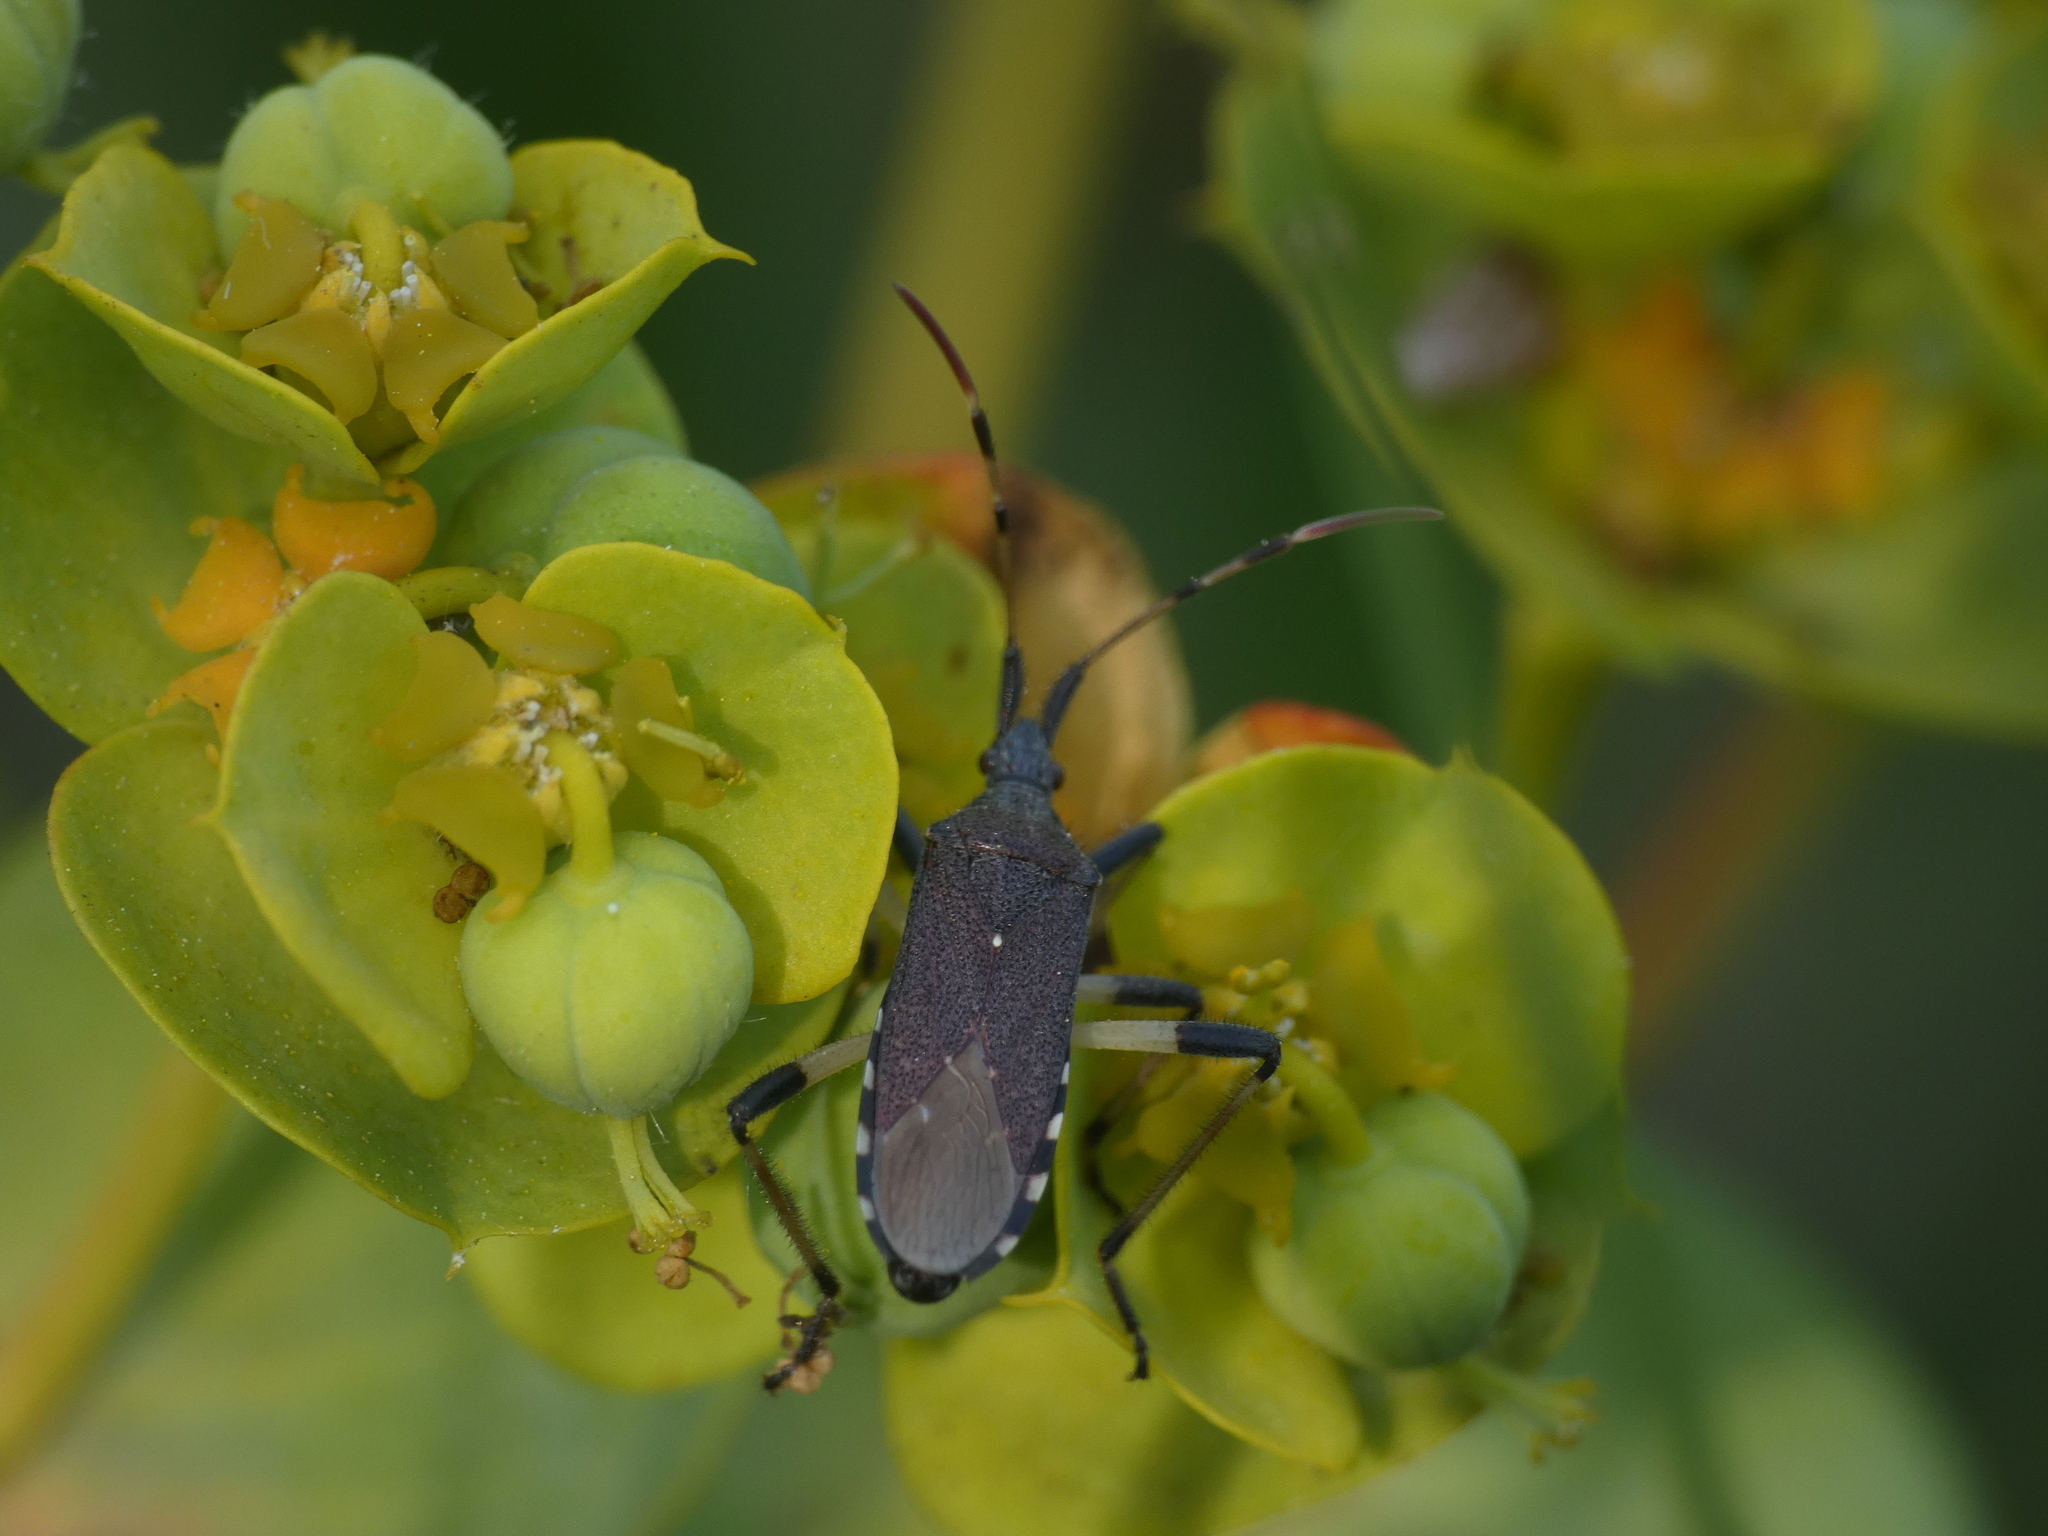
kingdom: Animalia
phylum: Arthropoda
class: Insecta
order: Hemiptera
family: Stenocephalidae
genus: Dicranocephalus
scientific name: Dicranocephalus albipes
